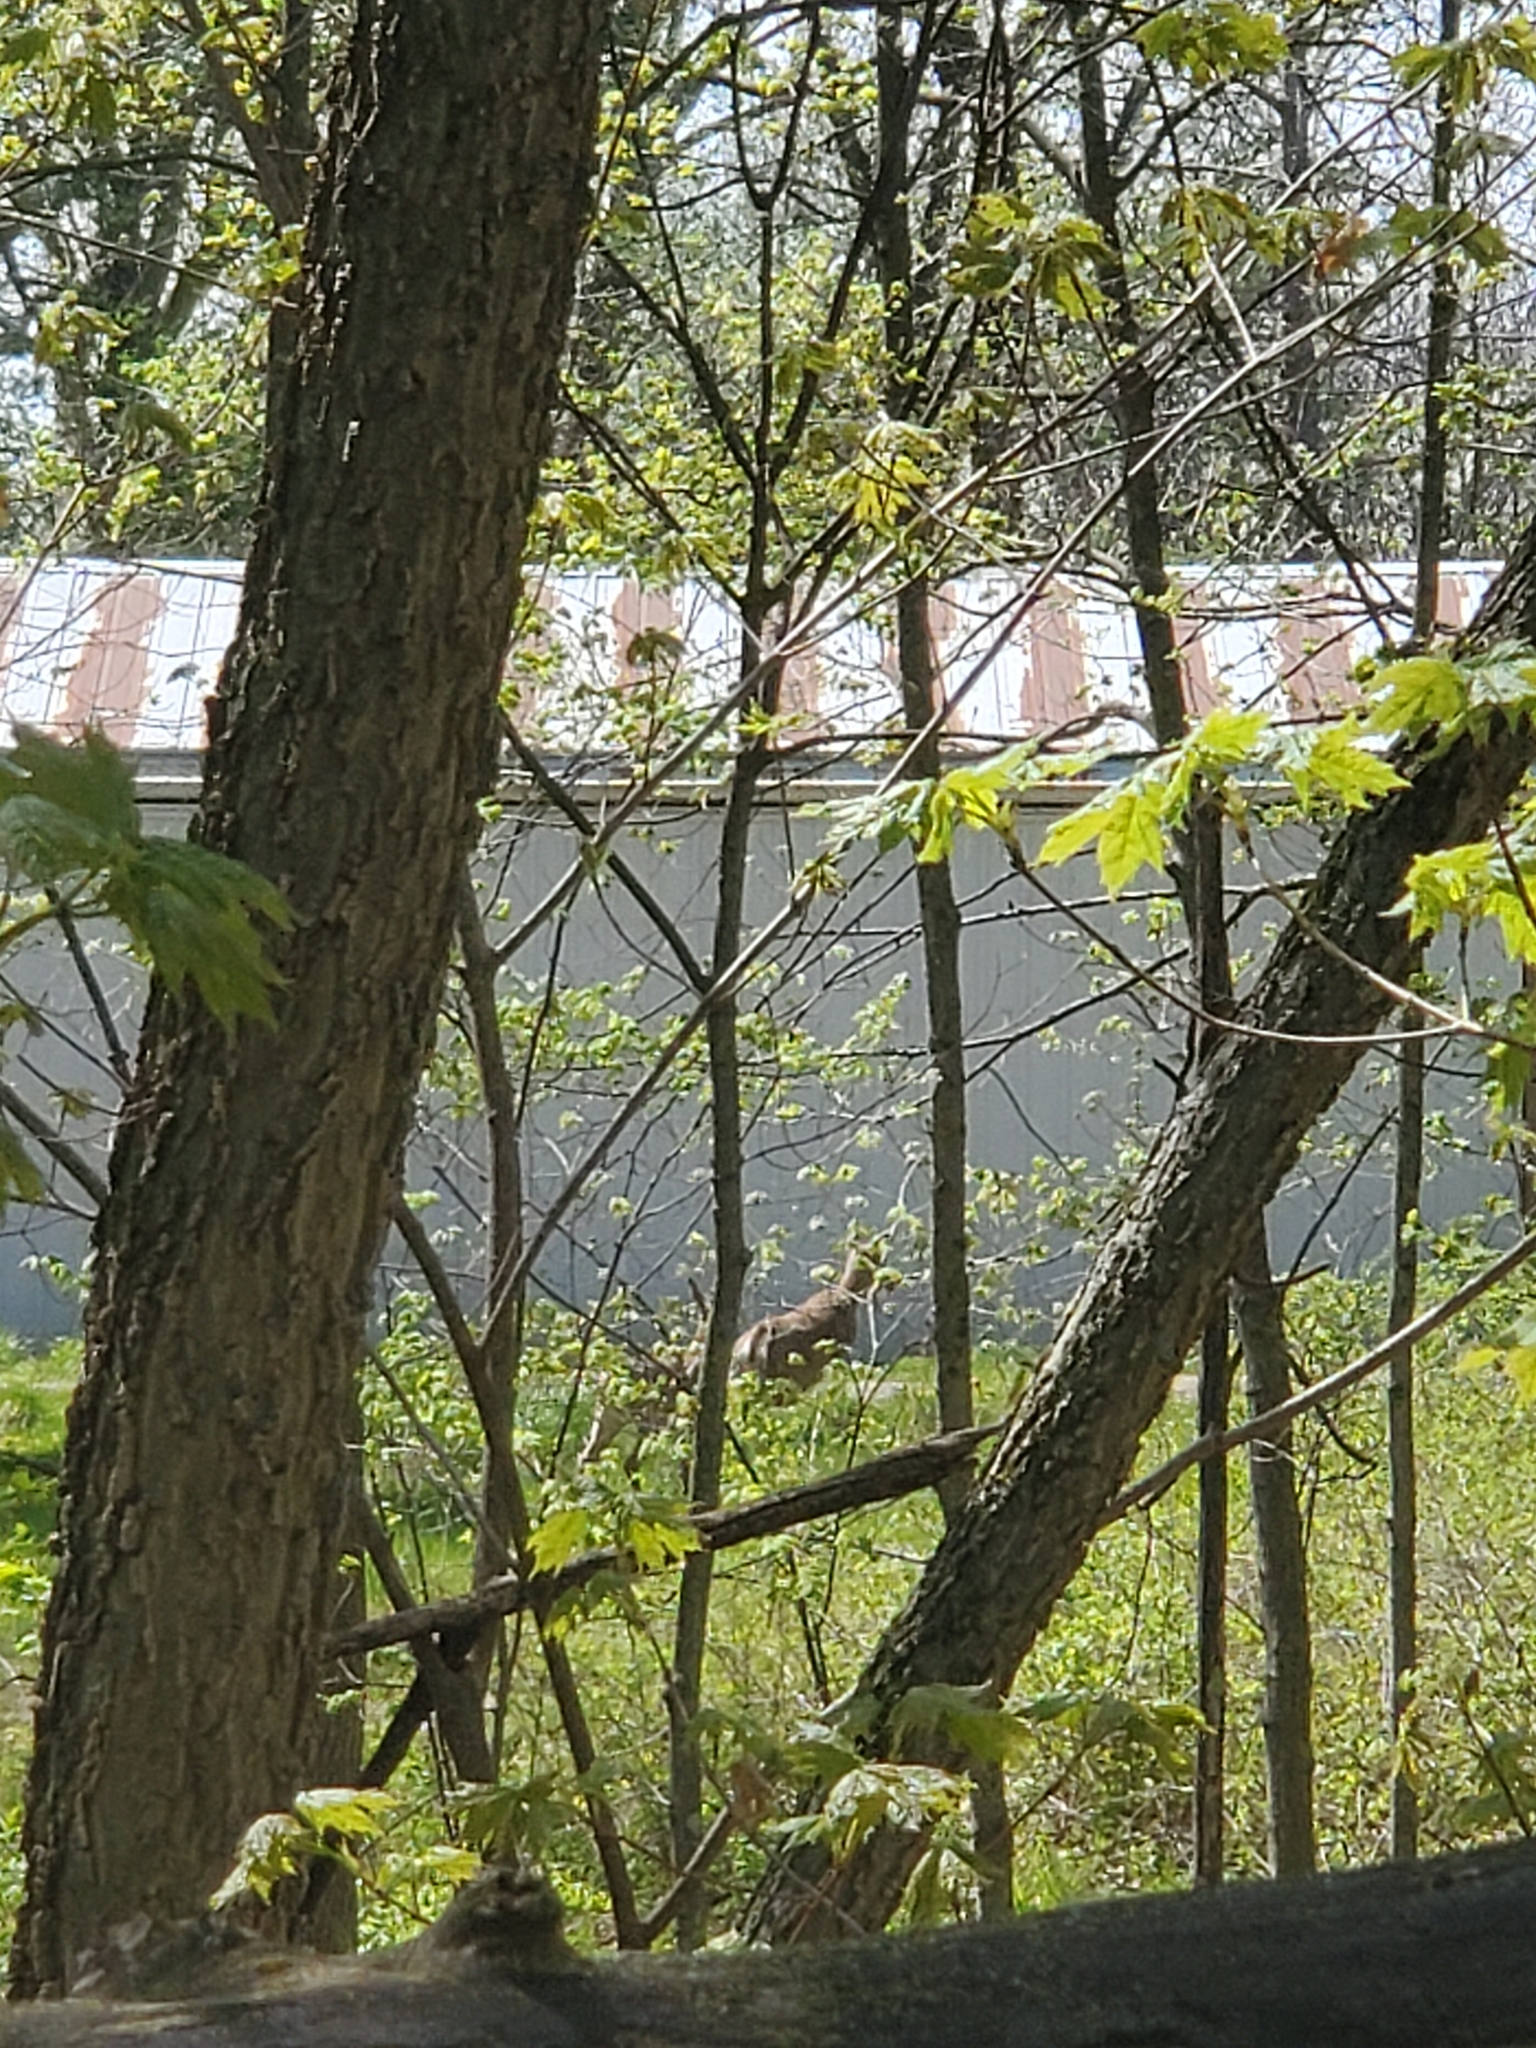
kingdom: Animalia
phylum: Chordata
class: Mammalia
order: Artiodactyla
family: Cervidae
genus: Odocoileus
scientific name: Odocoileus virginianus
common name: White-tailed deer
